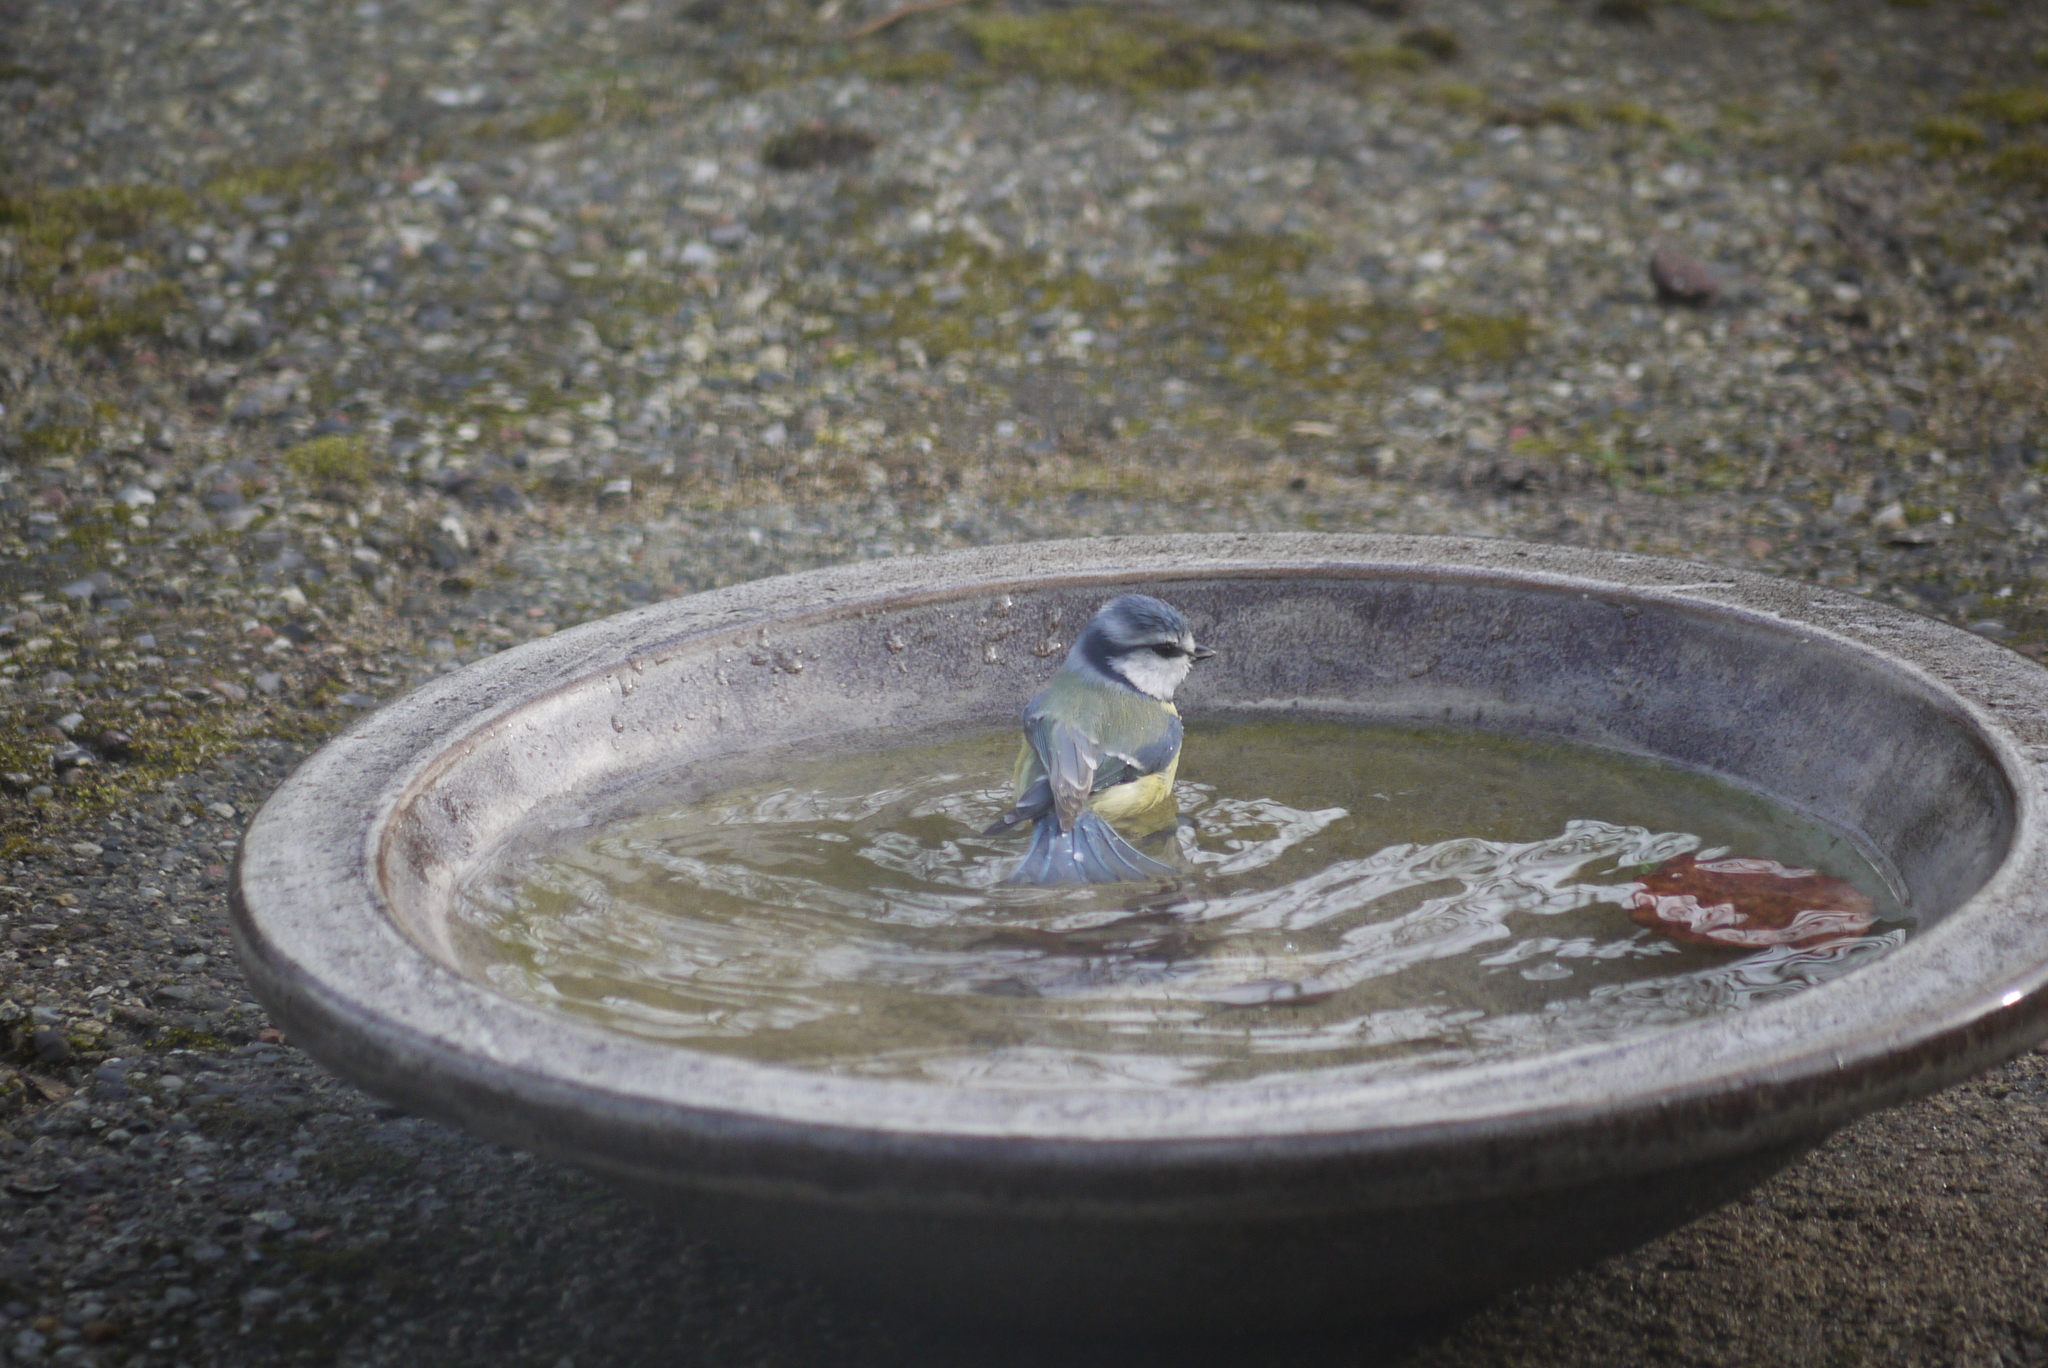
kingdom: Animalia
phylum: Chordata
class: Aves
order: Passeriformes
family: Paridae
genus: Cyanistes
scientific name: Cyanistes caeruleus
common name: Eurasian blue tit
